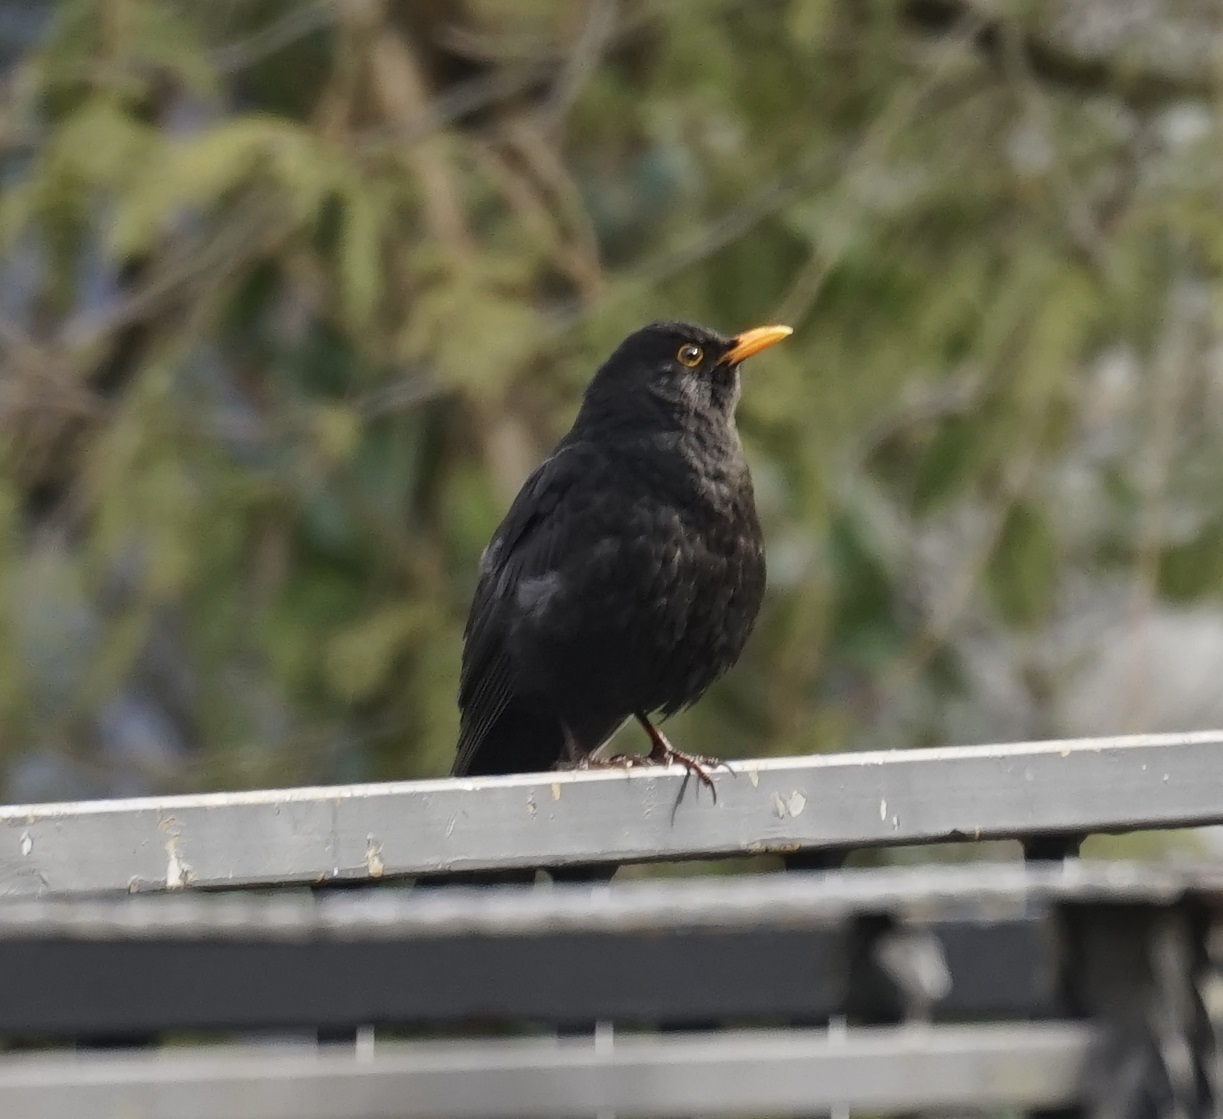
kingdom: Animalia
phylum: Chordata
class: Aves
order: Passeriformes
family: Turdidae
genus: Turdus
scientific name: Turdus merula
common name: Common blackbird
